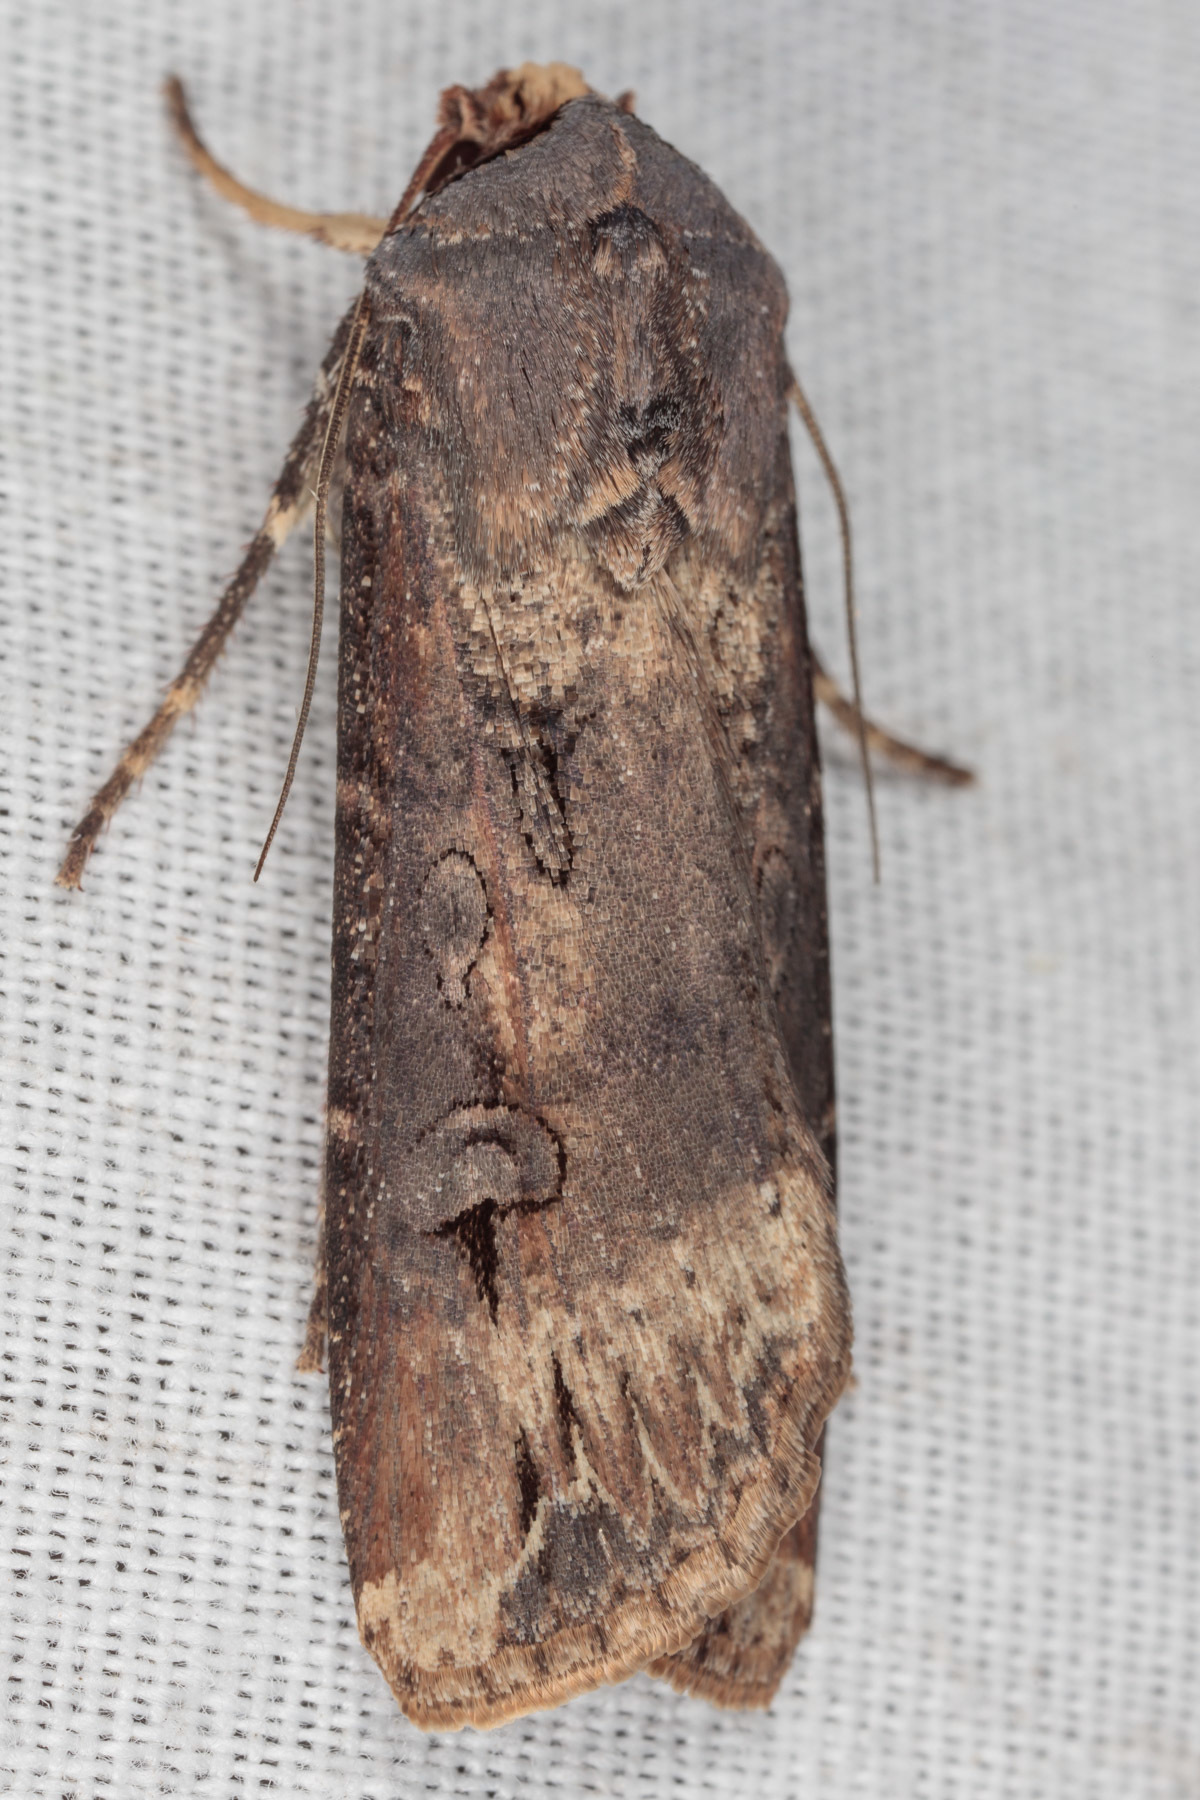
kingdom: Animalia
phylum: Arthropoda
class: Insecta
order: Lepidoptera
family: Noctuidae
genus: Agrotis
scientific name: Agrotis ipsilon
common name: Dark sword-grass
